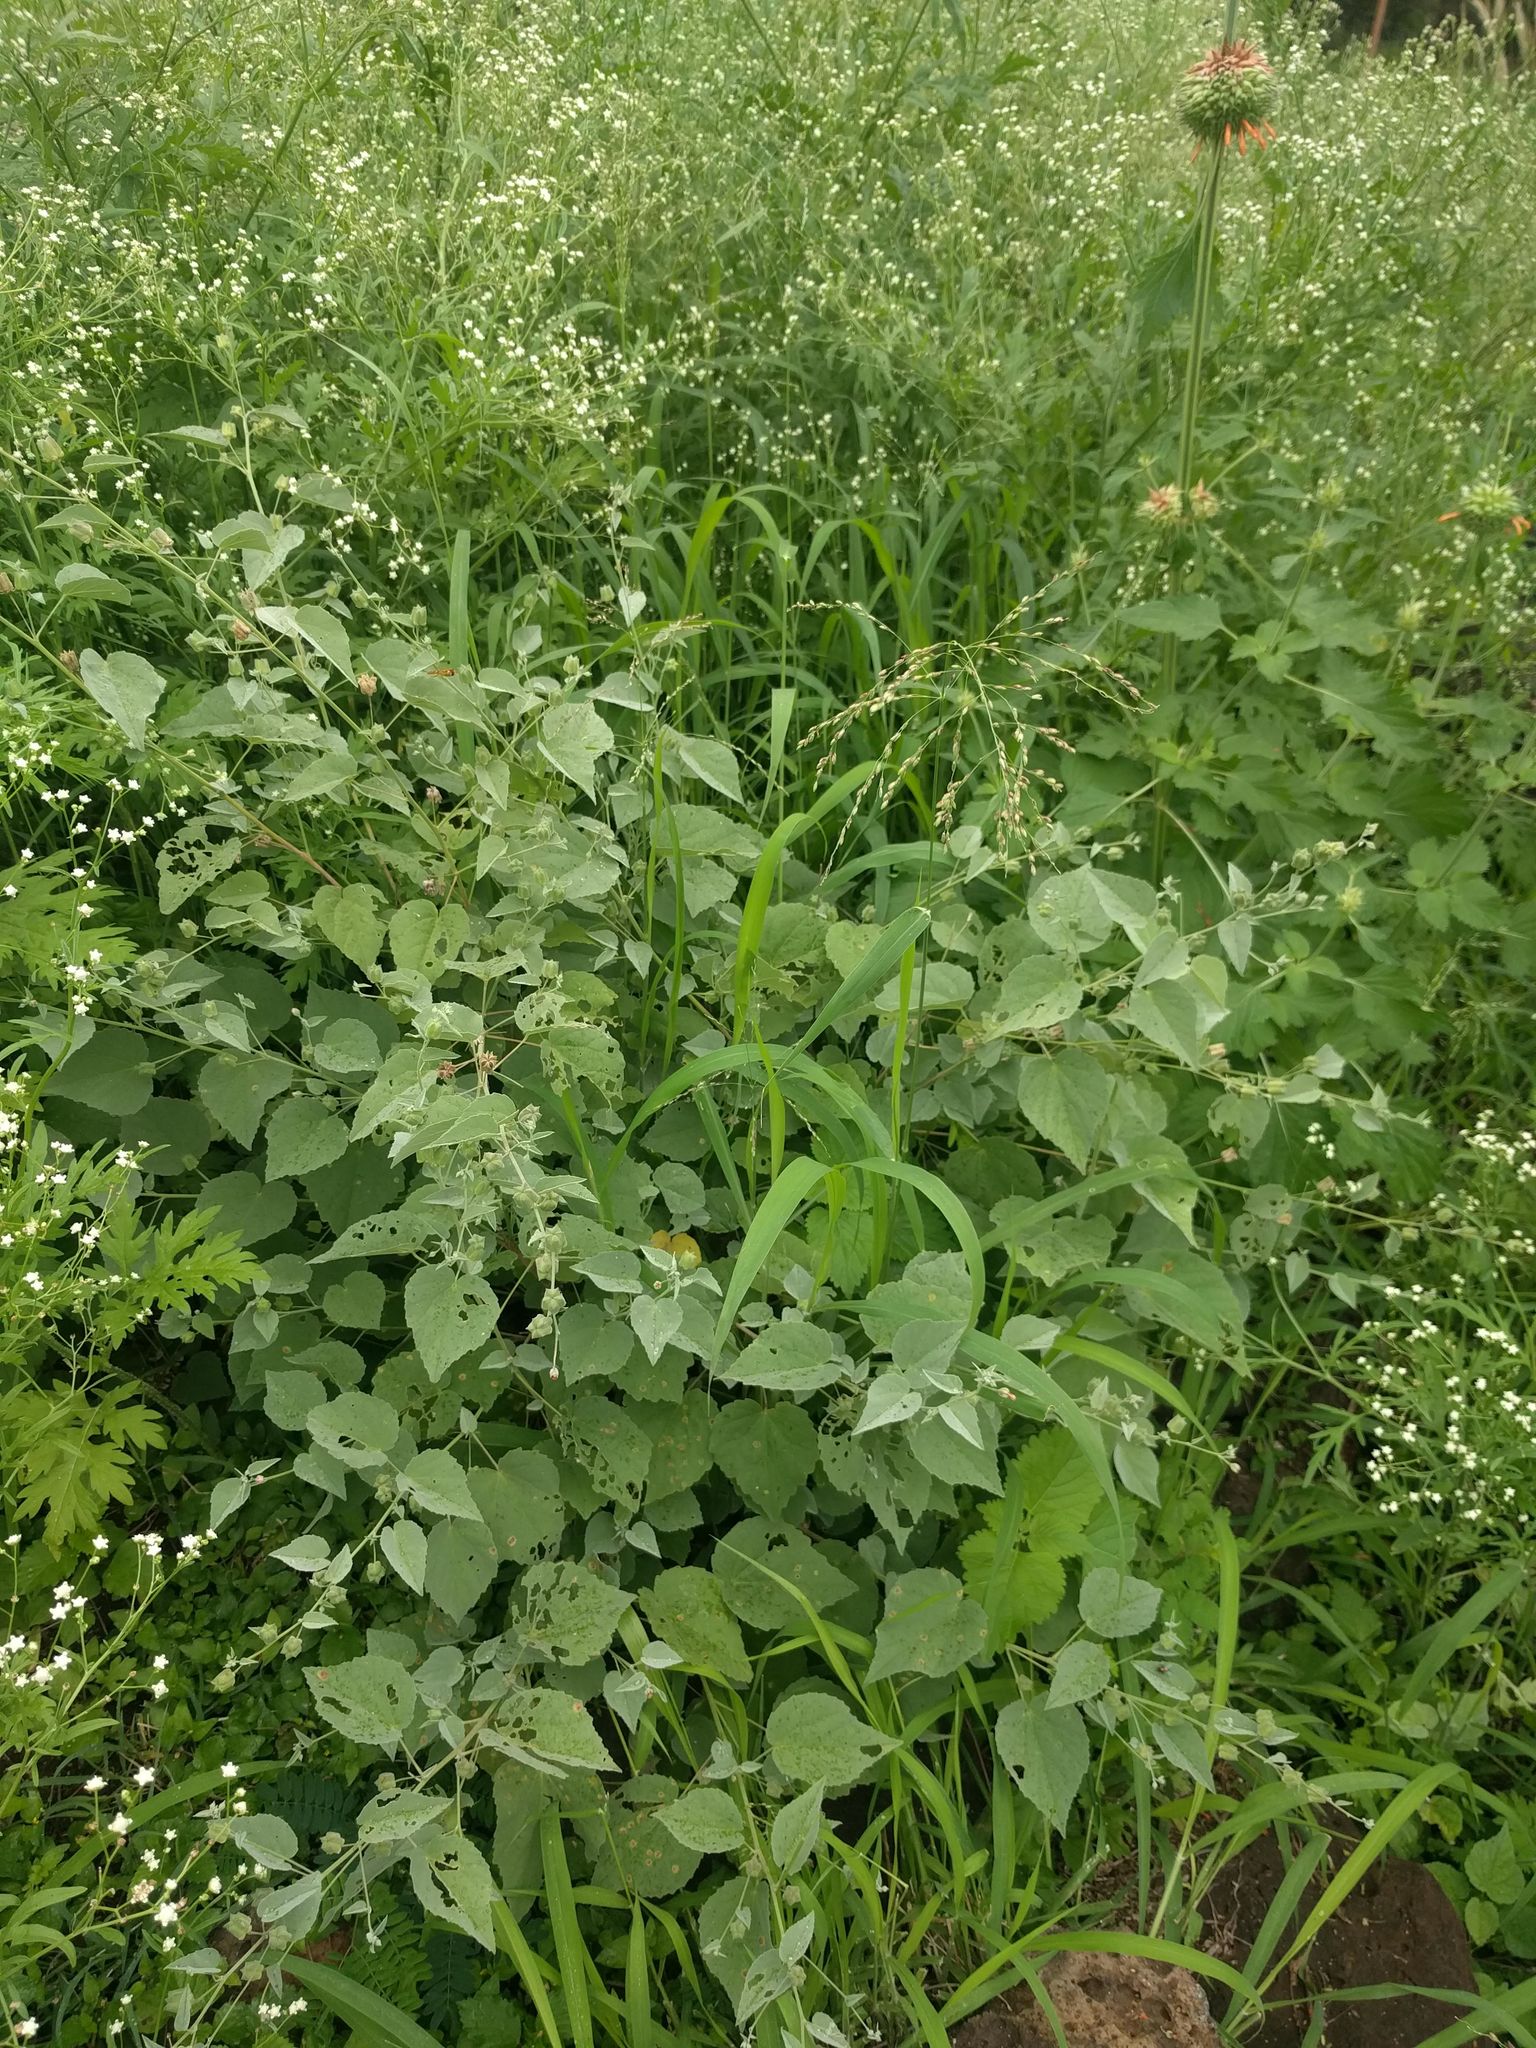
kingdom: Plantae
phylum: Tracheophyta
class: Magnoliopsida
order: Malvales
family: Malvaceae
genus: Abutilon
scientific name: Abutilon incanum
